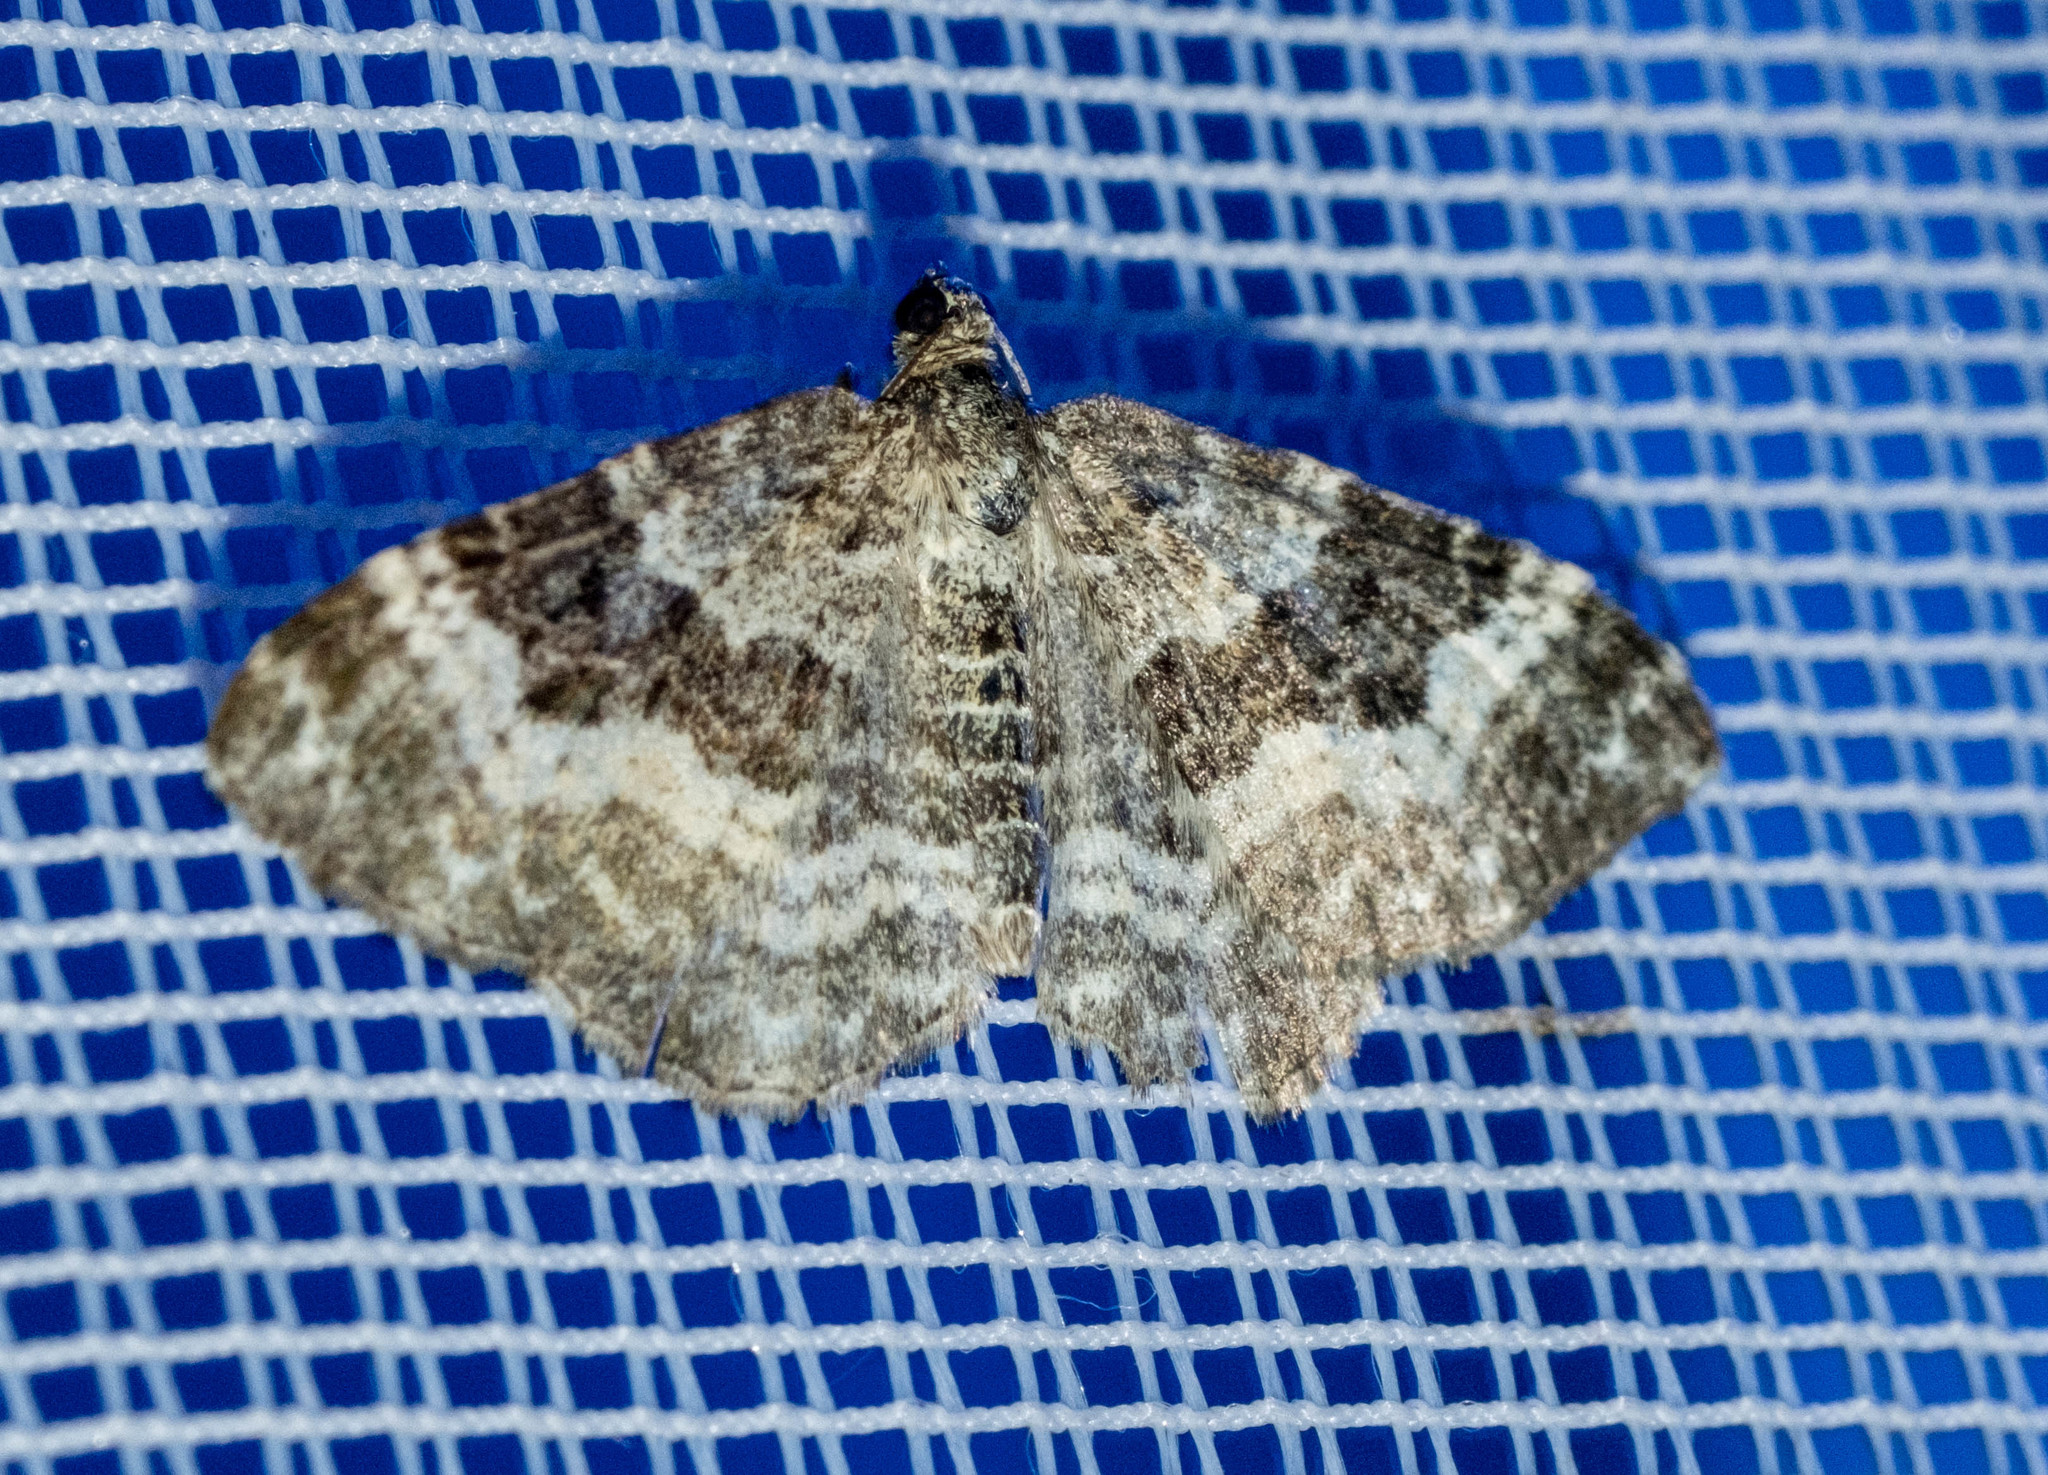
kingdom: Animalia
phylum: Arthropoda
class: Insecta
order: Lepidoptera
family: Geometridae
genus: Epirrhoe
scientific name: Epirrhoe alternata
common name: Common carpet
